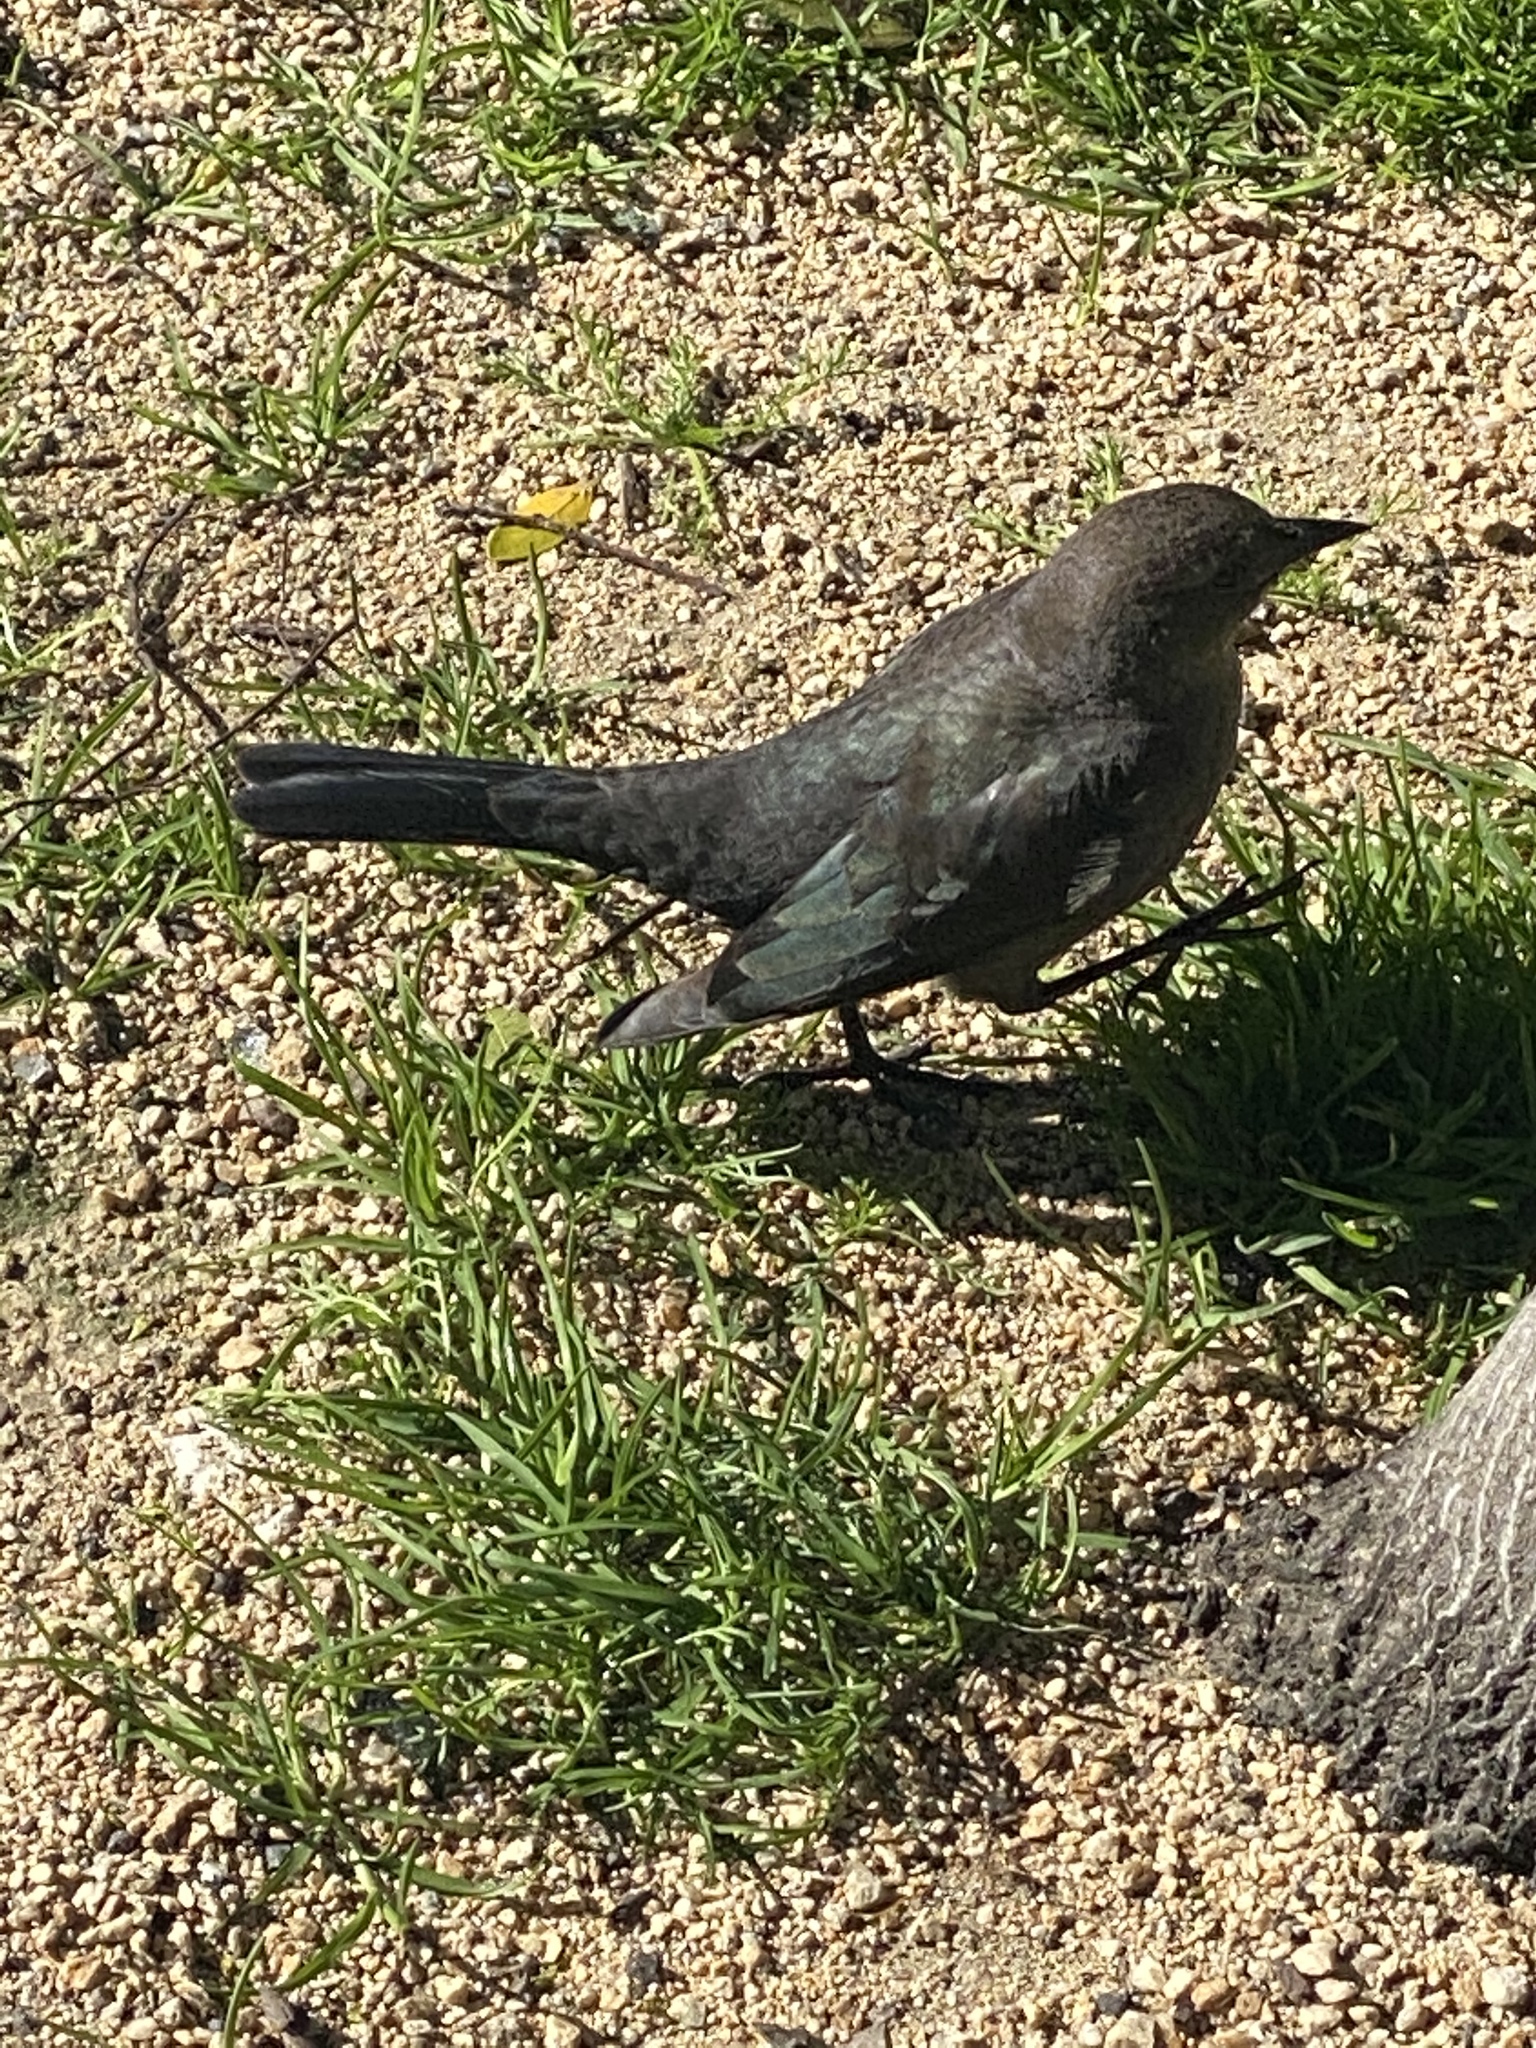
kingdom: Animalia
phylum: Chordata
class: Aves
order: Passeriformes
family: Icteridae
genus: Euphagus
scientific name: Euphagus cyanocephalus
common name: Brewer's blackbird
